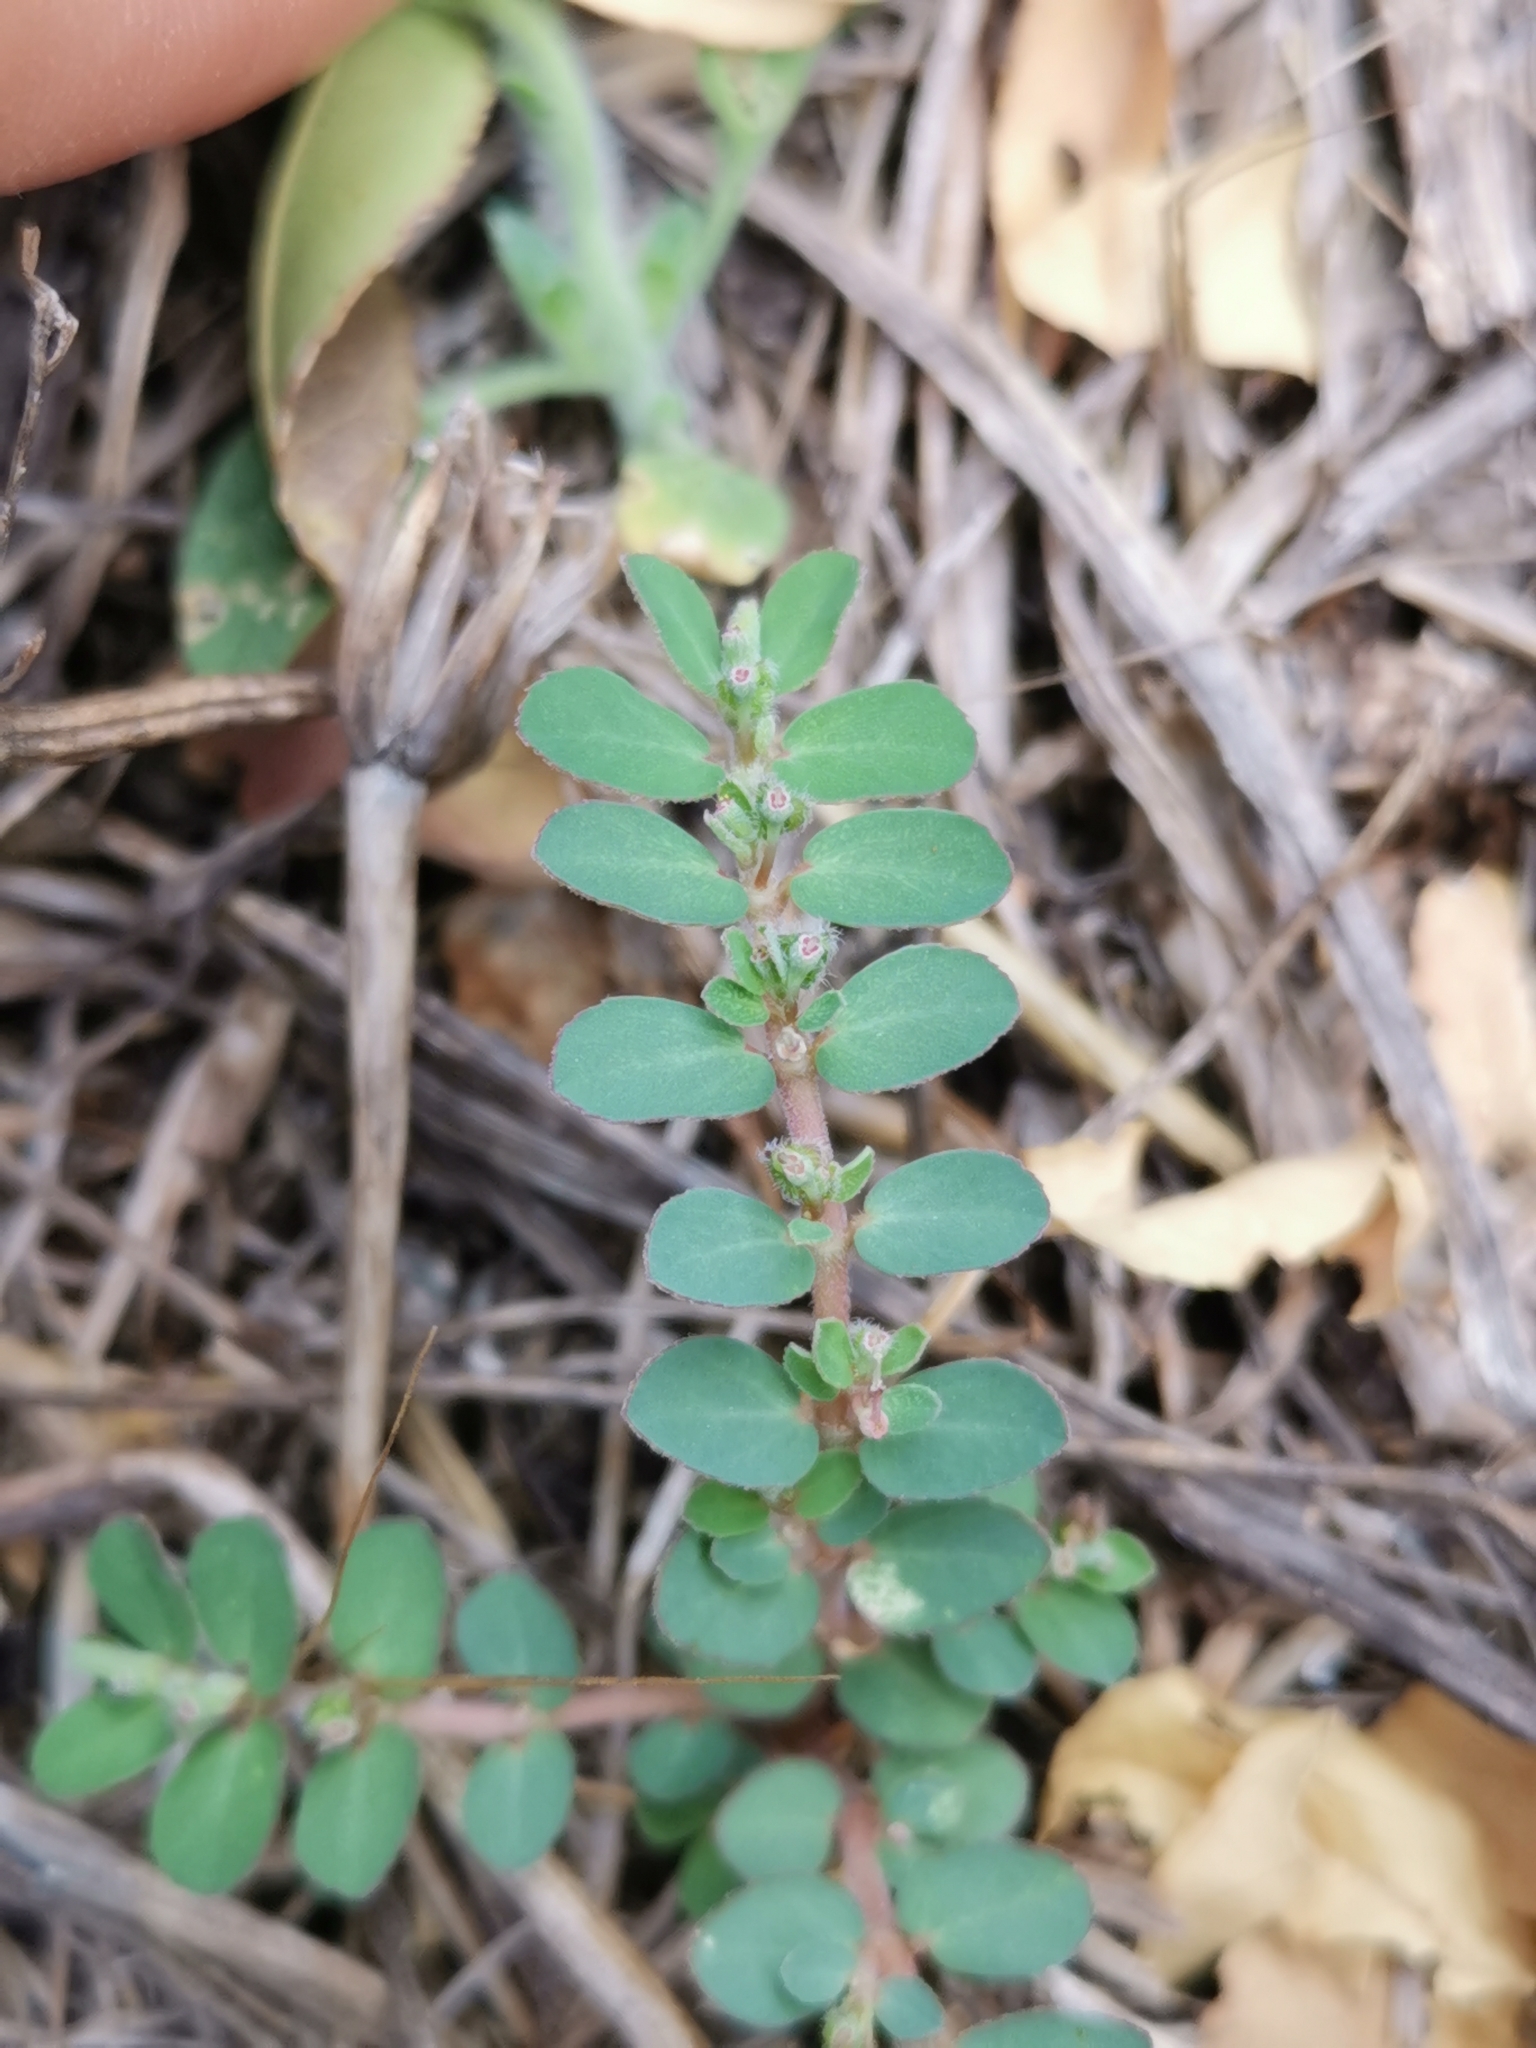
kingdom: Plantae
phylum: Tracheophyta
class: Magnoliopsida
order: Malpighiales
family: Euphorbiaceae
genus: Euphorbia
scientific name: Euphorbia prostrata
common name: Prostrate sandmat
